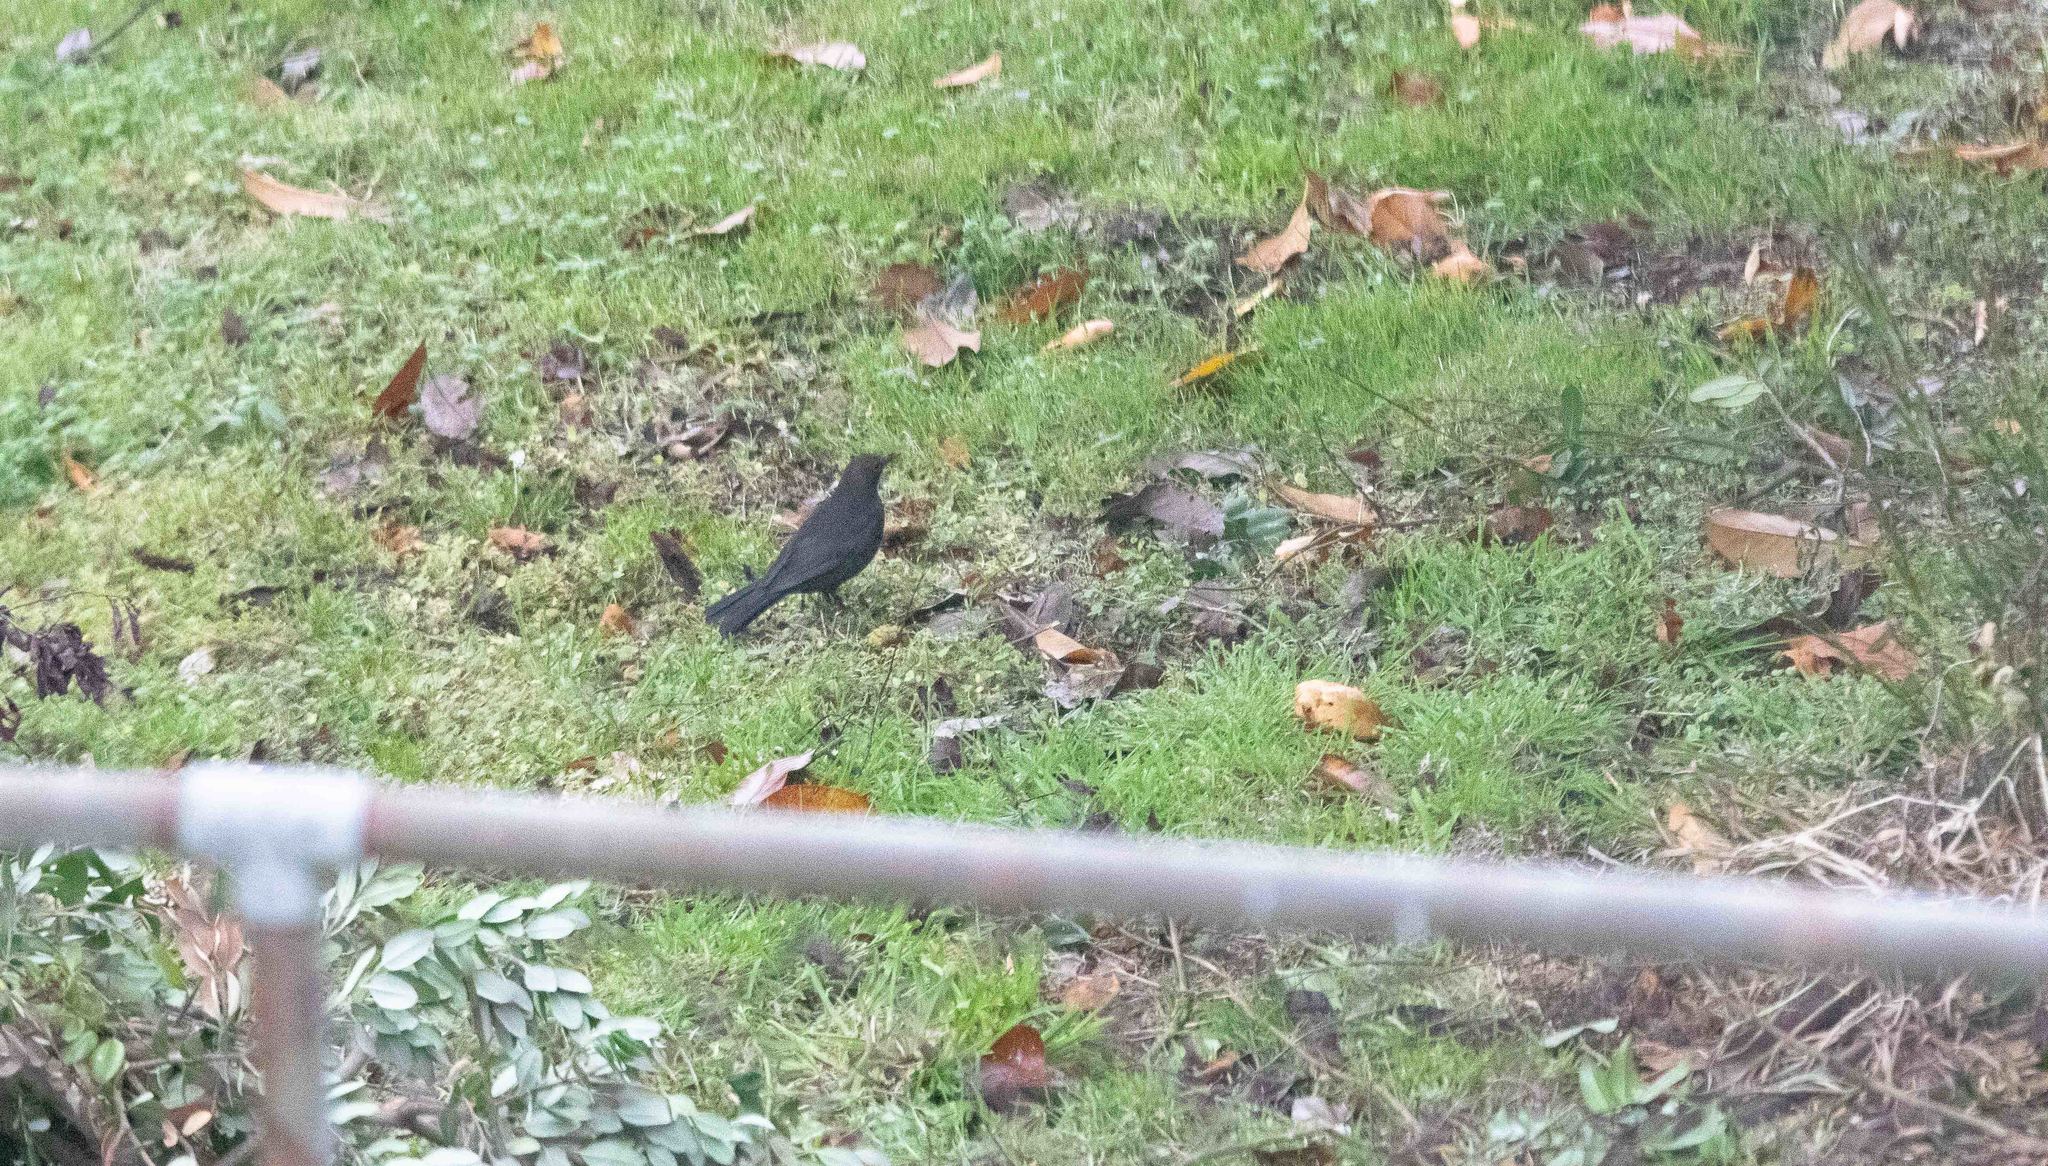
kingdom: Animalia
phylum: Chordata
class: Aves
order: Passeriformes
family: Turdidae
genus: Turdus
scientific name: Turdus merula
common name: Common blackbird
